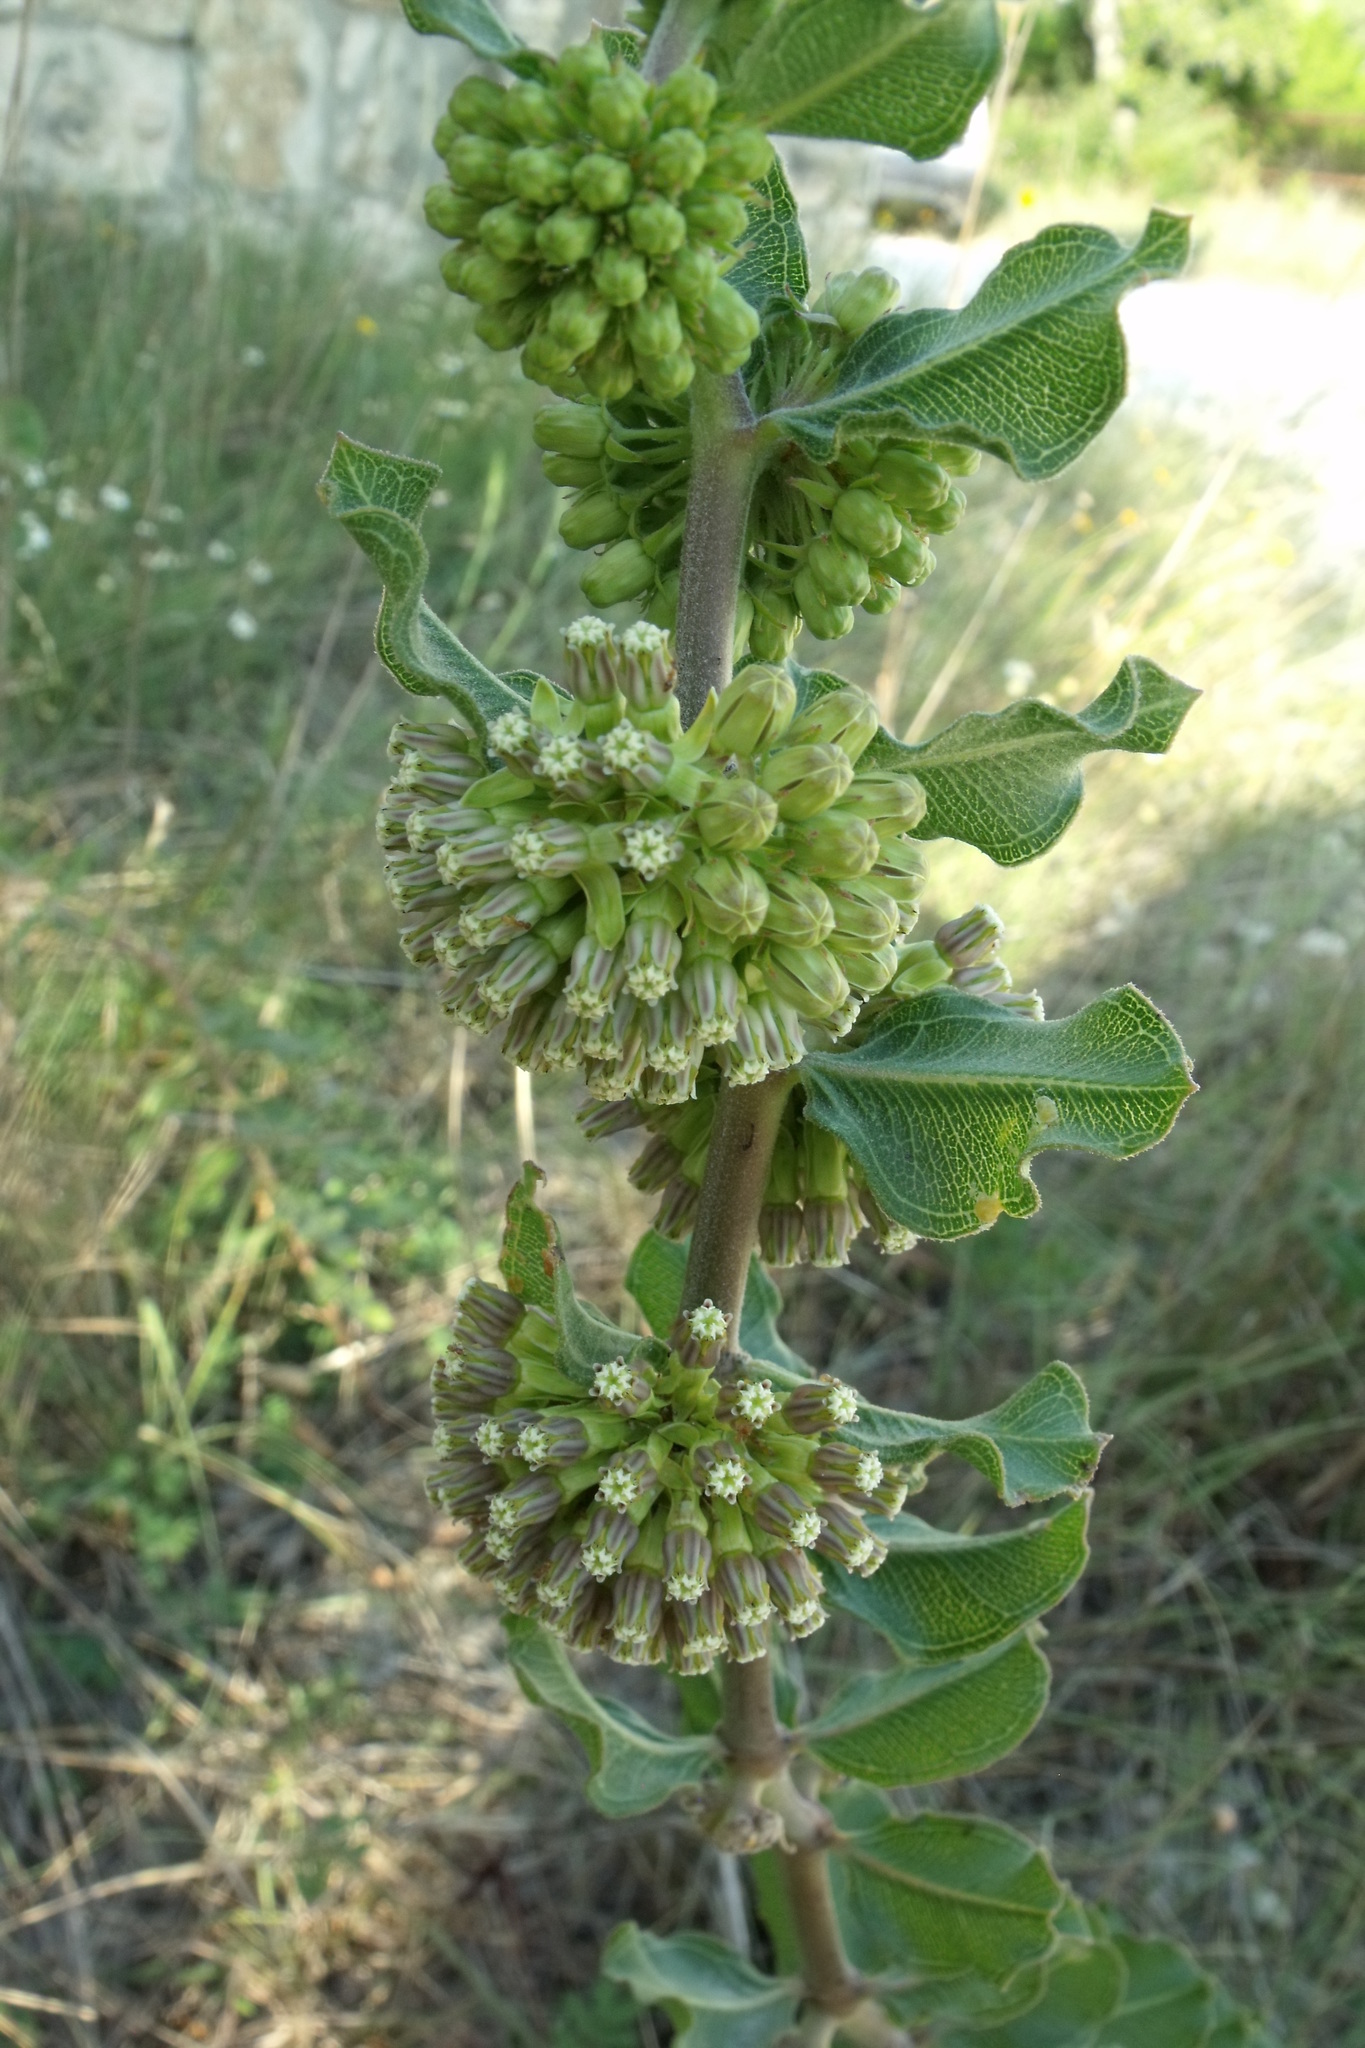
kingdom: Plantae
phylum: Tracheophyta
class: Magnoliopsida
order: Gentianales
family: Apocynaceae
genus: Asclepias
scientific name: Asclepias viridiflora
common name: Green comet milkweed
